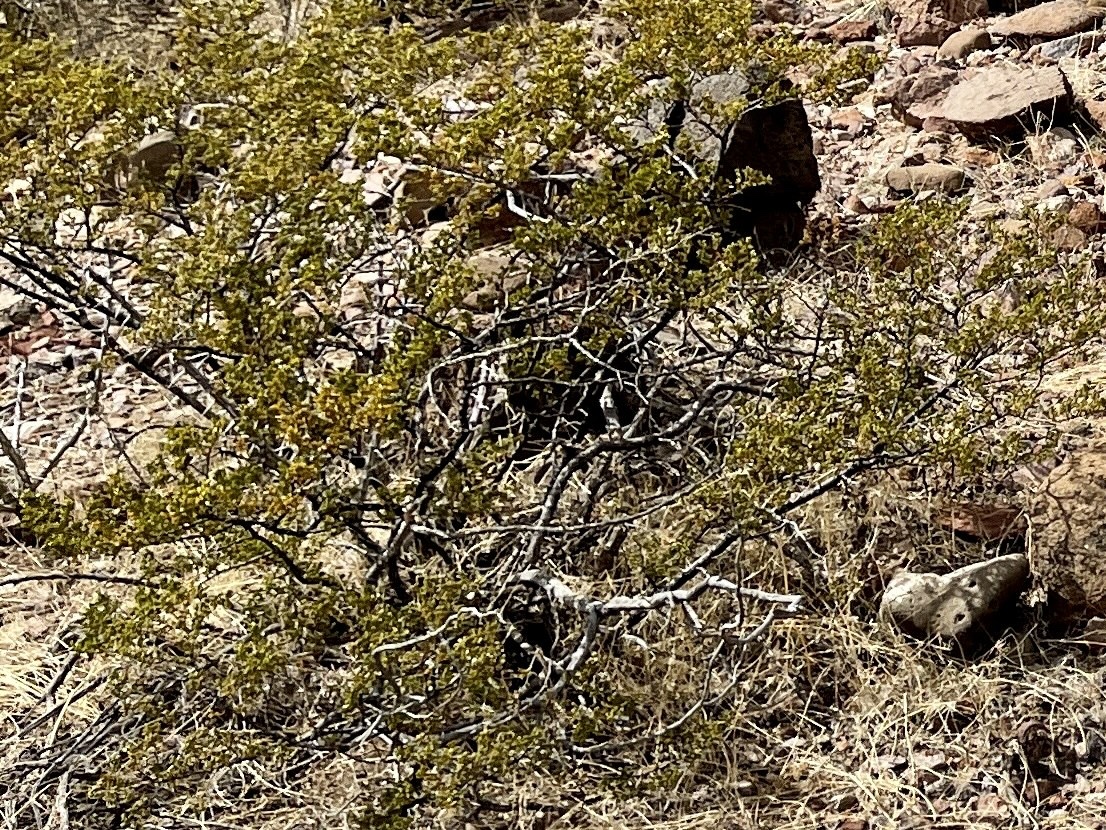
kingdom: Plantae
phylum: Tracheophyta
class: Magnoliopsida
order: Zygophyllales
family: Zygophyllaceae
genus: Larrea
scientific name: Larrea tridentata
